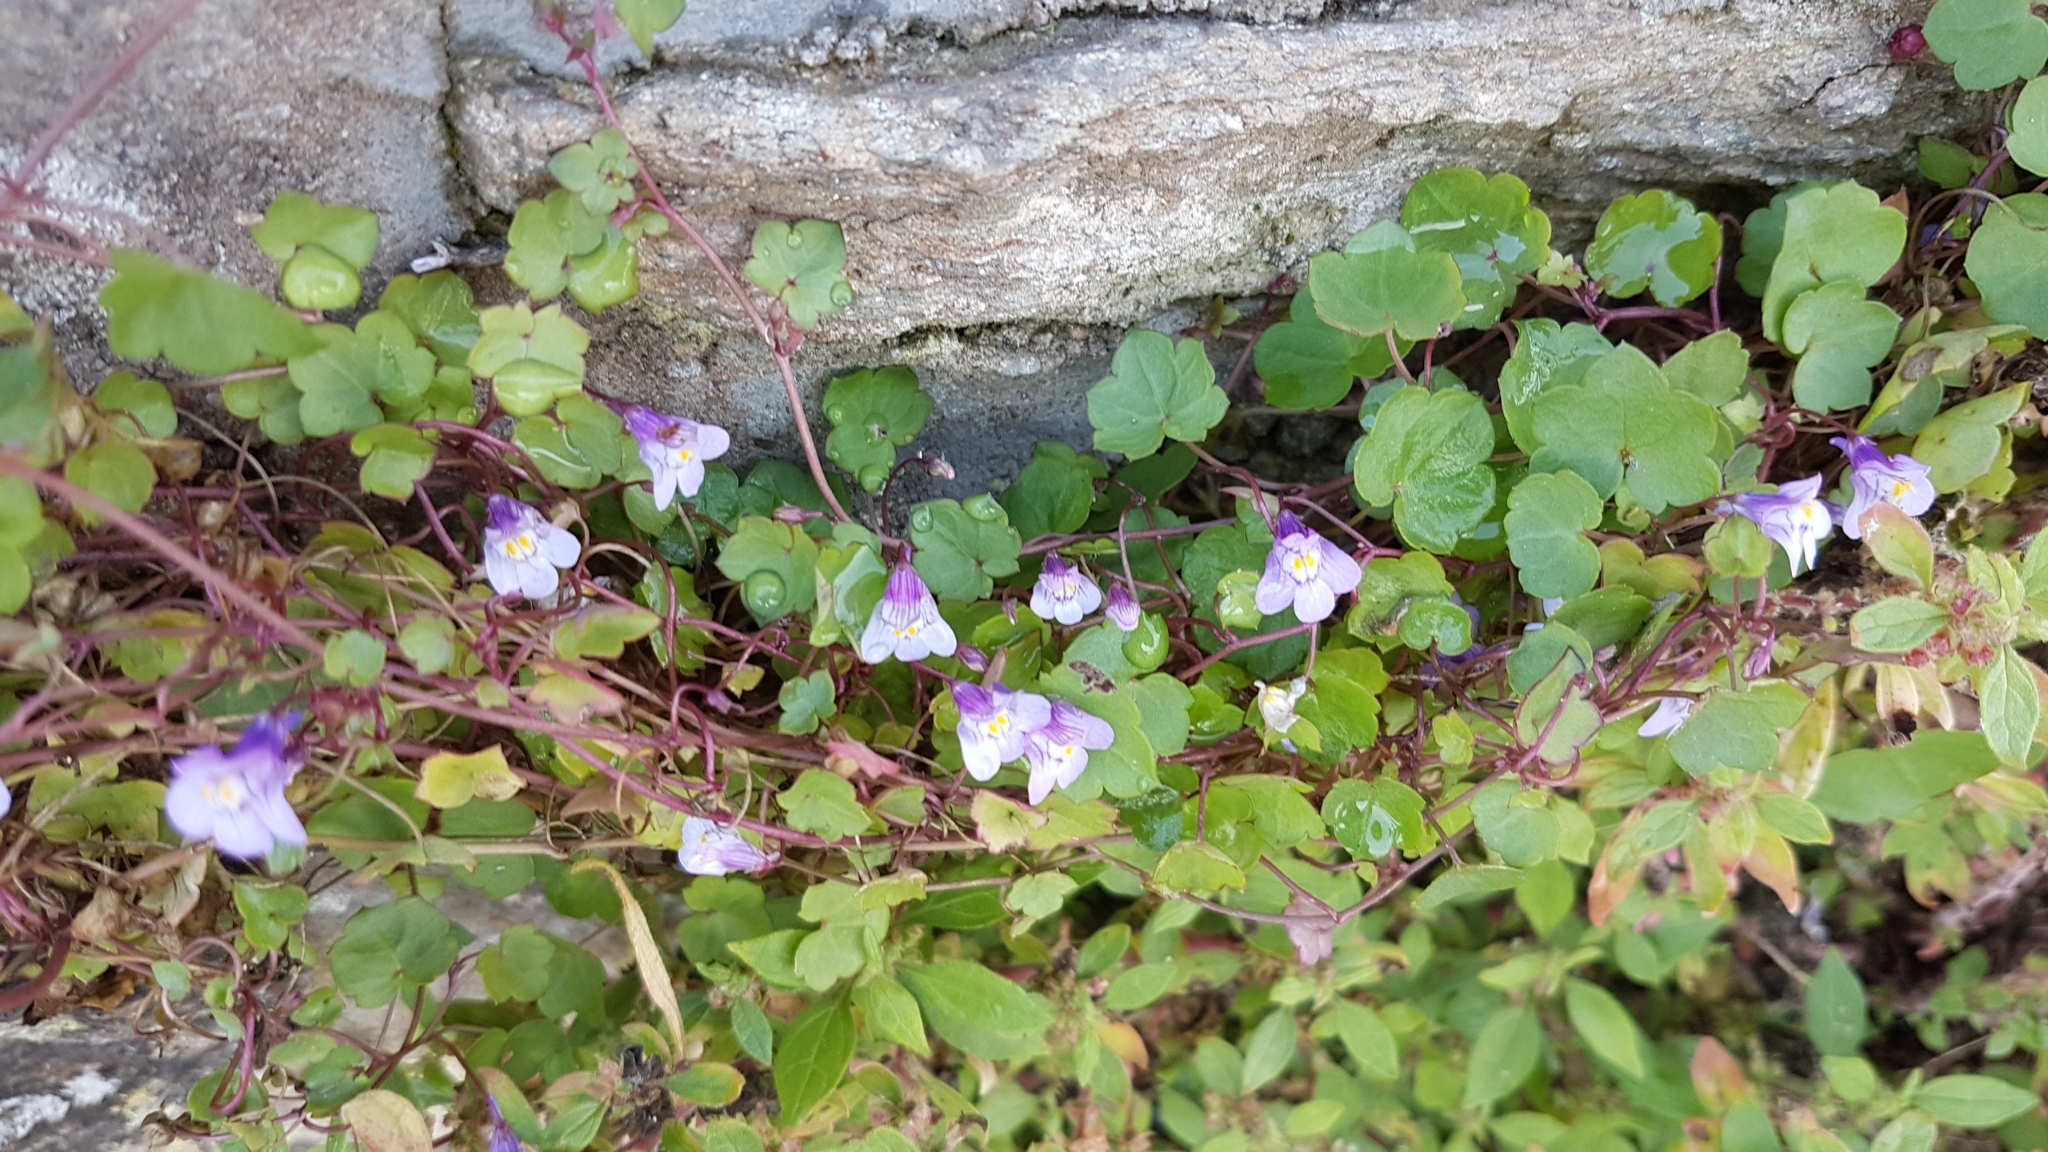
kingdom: Plantae
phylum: Tracheophyta
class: Magnoliopsida
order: Lamiales
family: Plantaginaceae
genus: Cymbalaria
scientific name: Cymbalaria muralis
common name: Ivy-leaved toadflax
